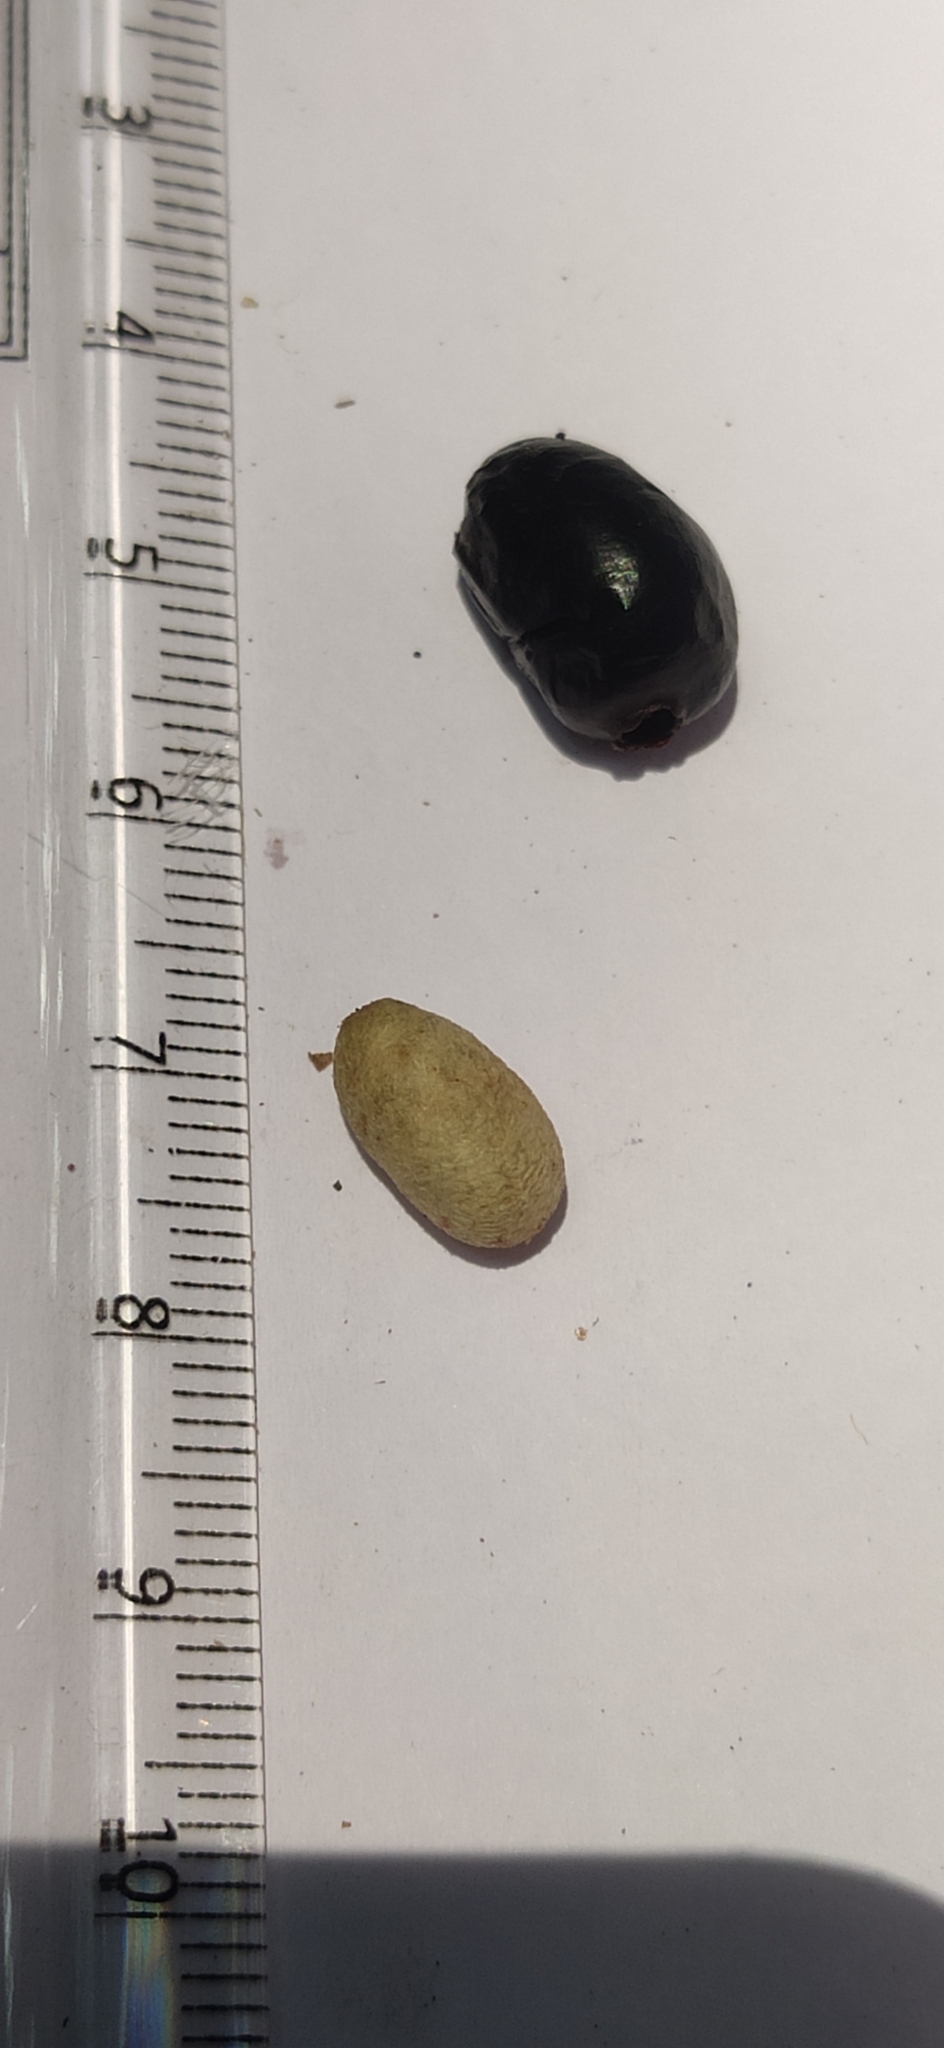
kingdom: Plantae
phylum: Tracheophyta
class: Magnoliopsida
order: Myrtales
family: Myrtaceae
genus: Syzygium
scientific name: Syzygium densiflorum
